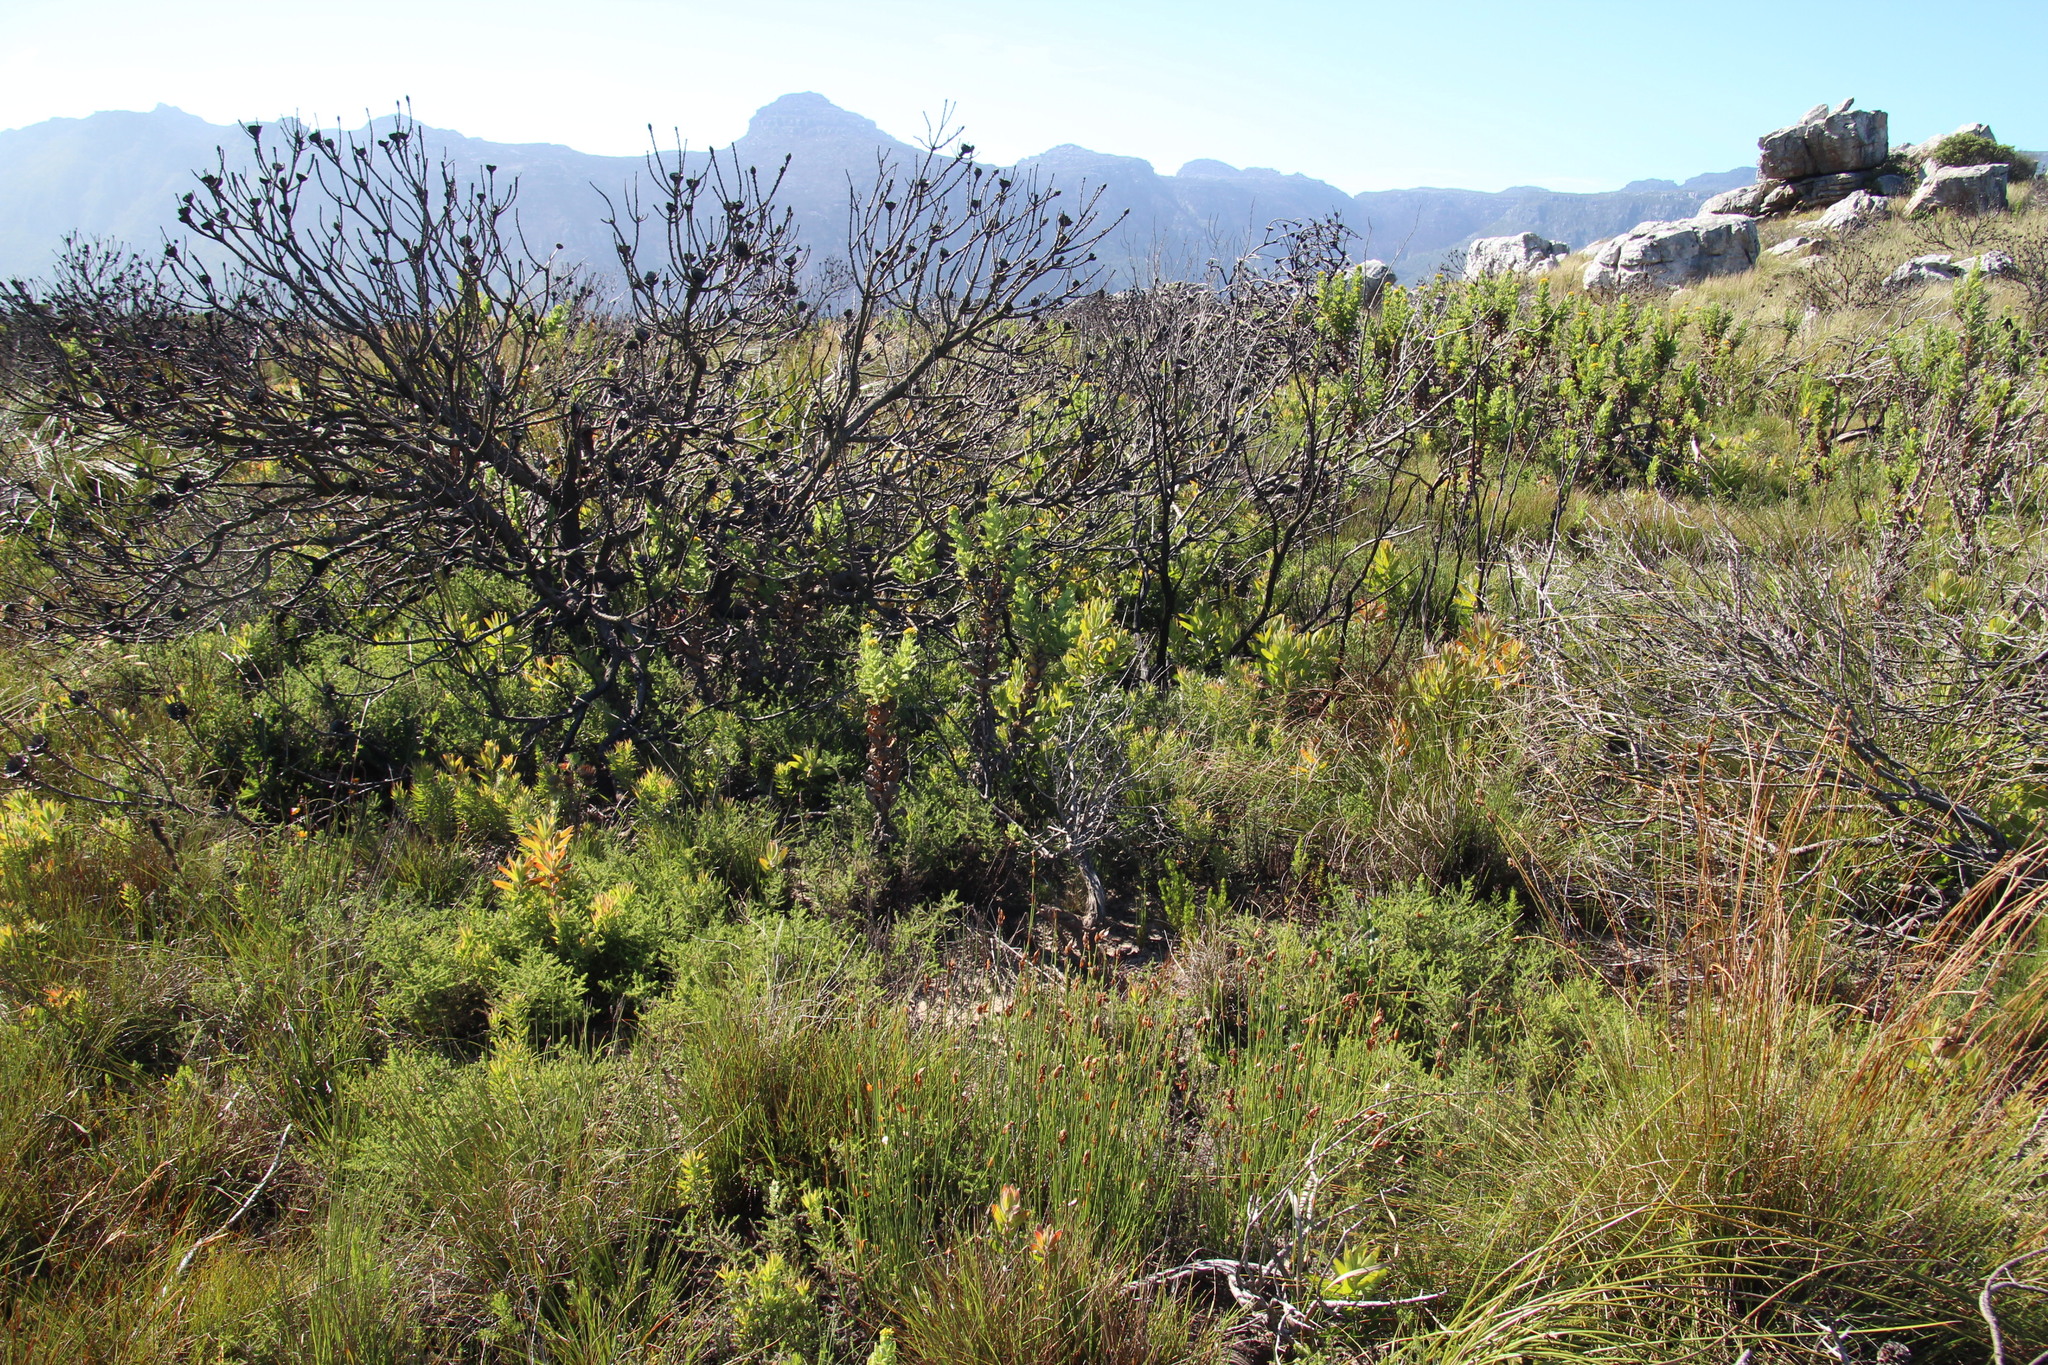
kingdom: Plantae
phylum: Tracheophyta
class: Magnoliopsida
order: Proteales
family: Proteaceae
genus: Leucadendron
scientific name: Leucadendron xanthoconus
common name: Sickle-leaf conebush
